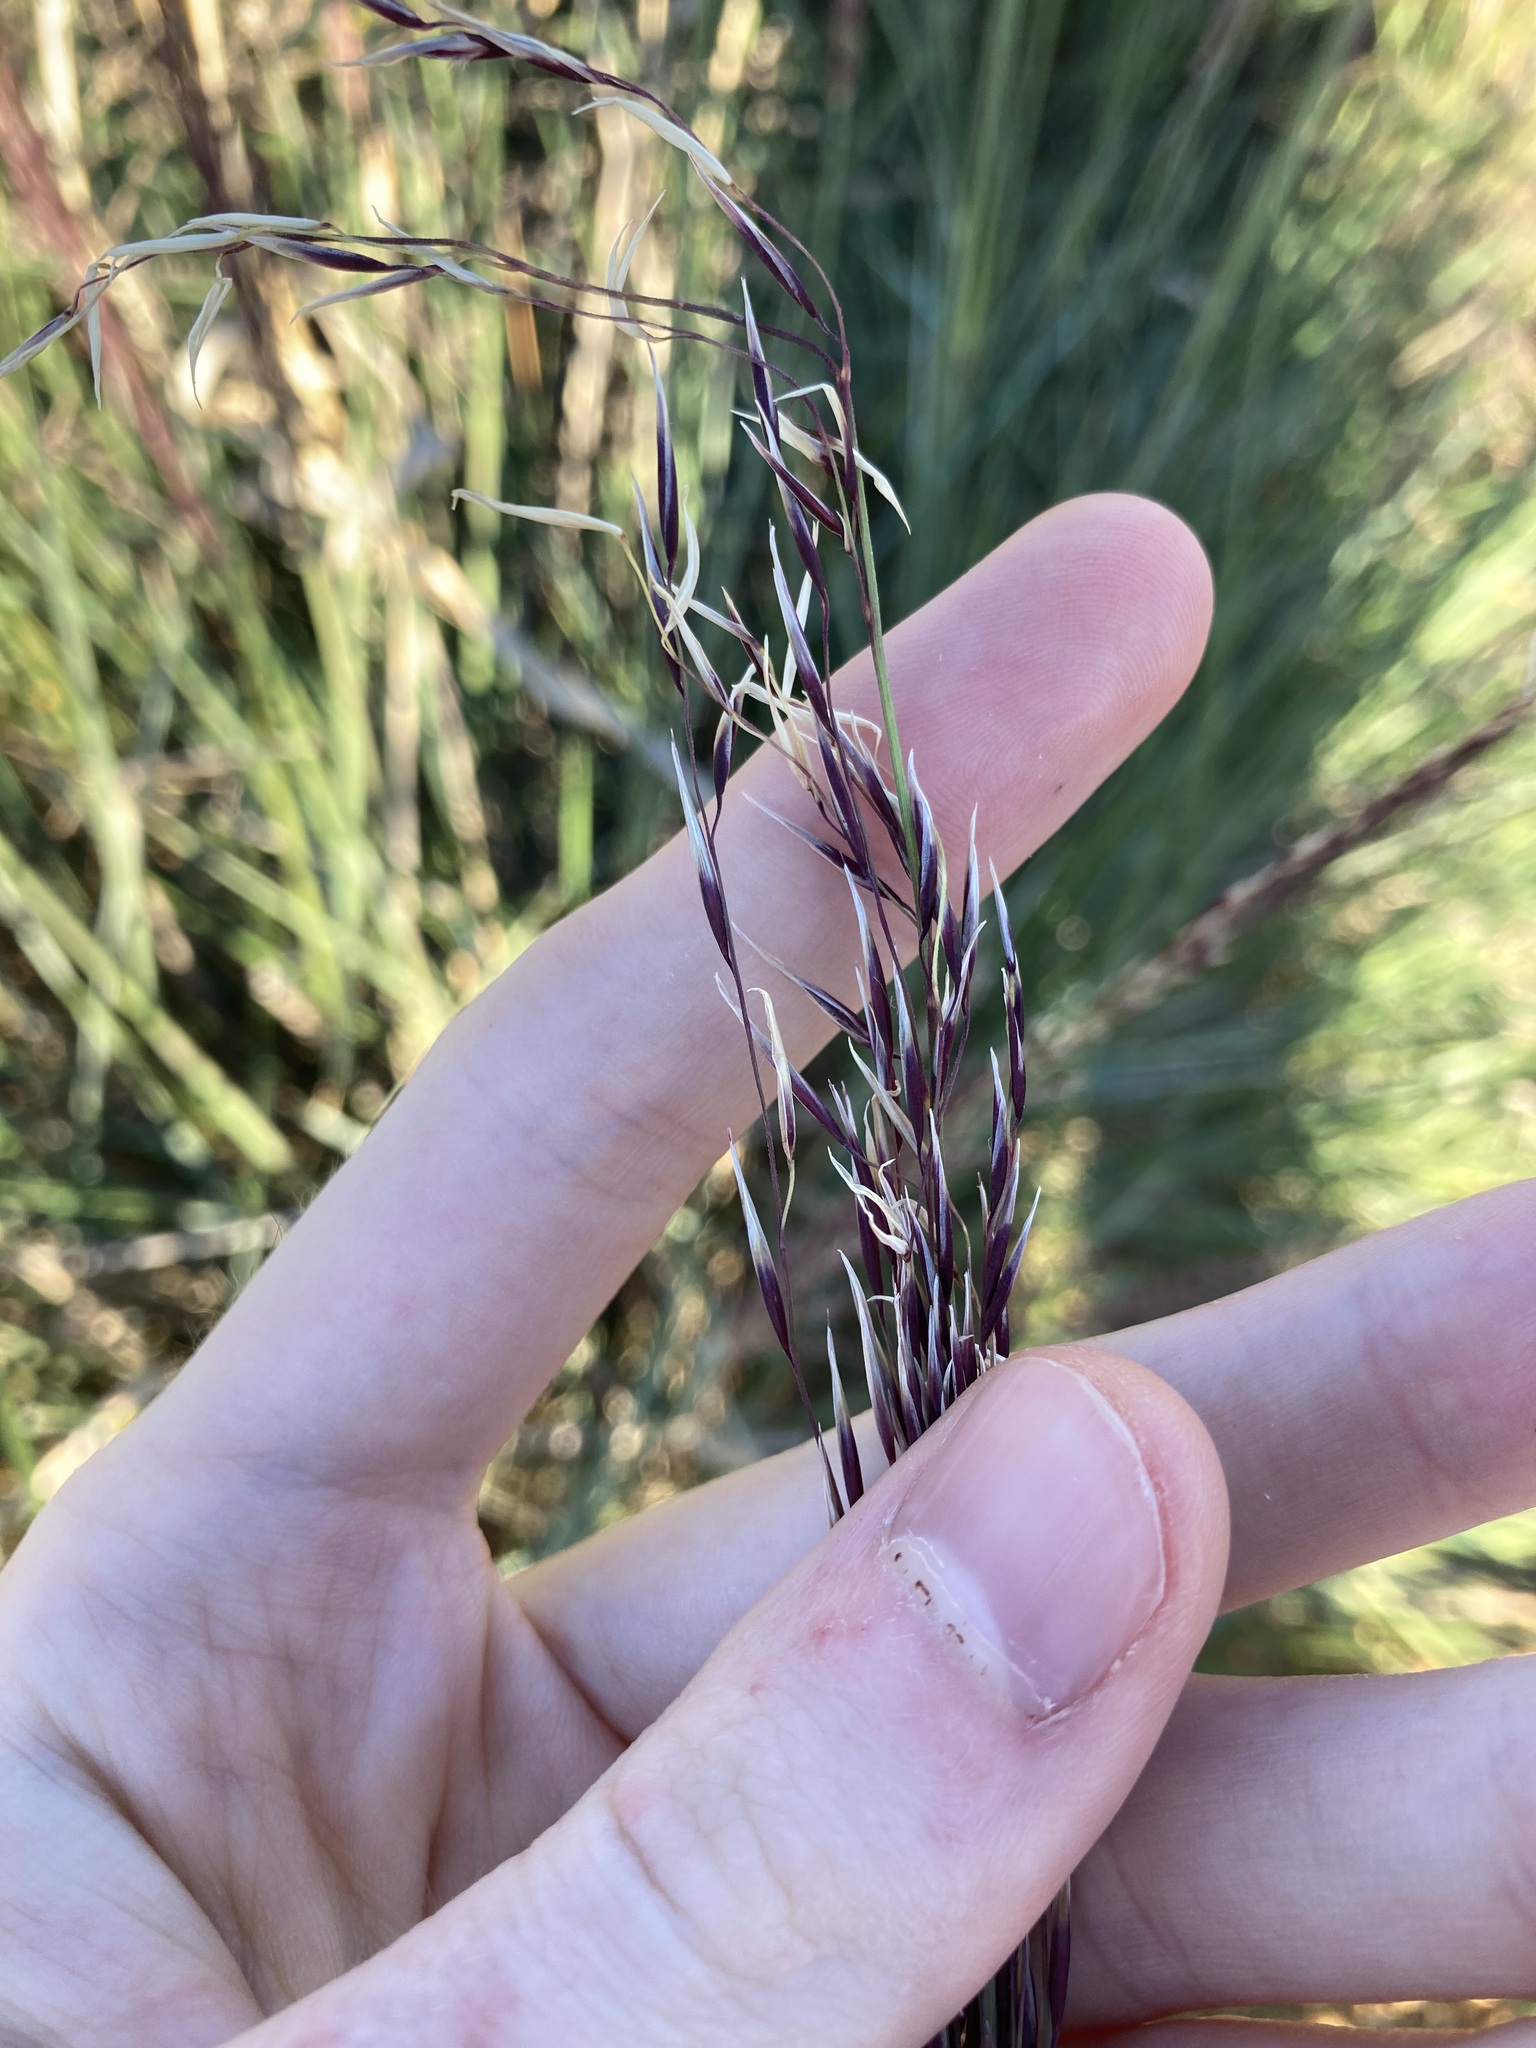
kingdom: Plantae
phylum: Tracheophyta
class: Liliopsida
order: Poales
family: Poaceae
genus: Triodia
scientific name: Triodia dielsii
